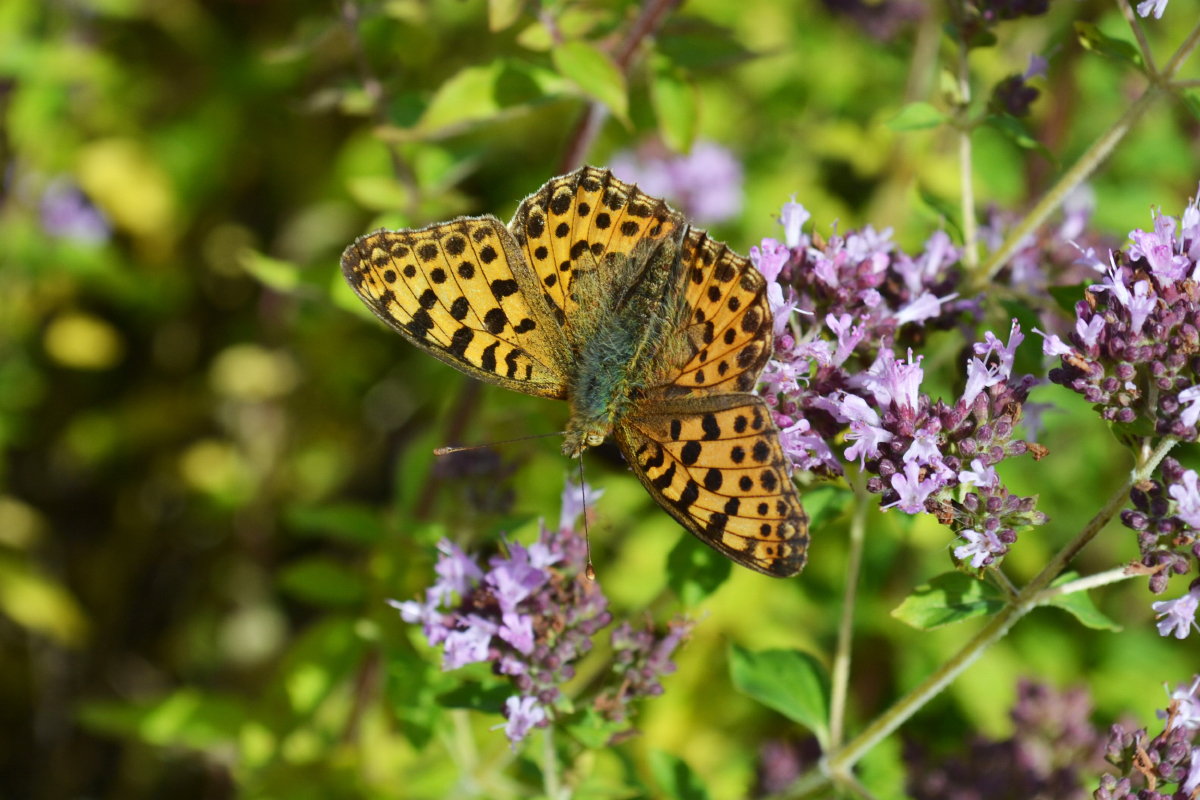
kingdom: Animalia
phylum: Arthropoda
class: Insecta
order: Lepidoptera
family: Nymphalidae
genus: Issoria
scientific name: Issoria lathonia
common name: Queen of spain fritillary
